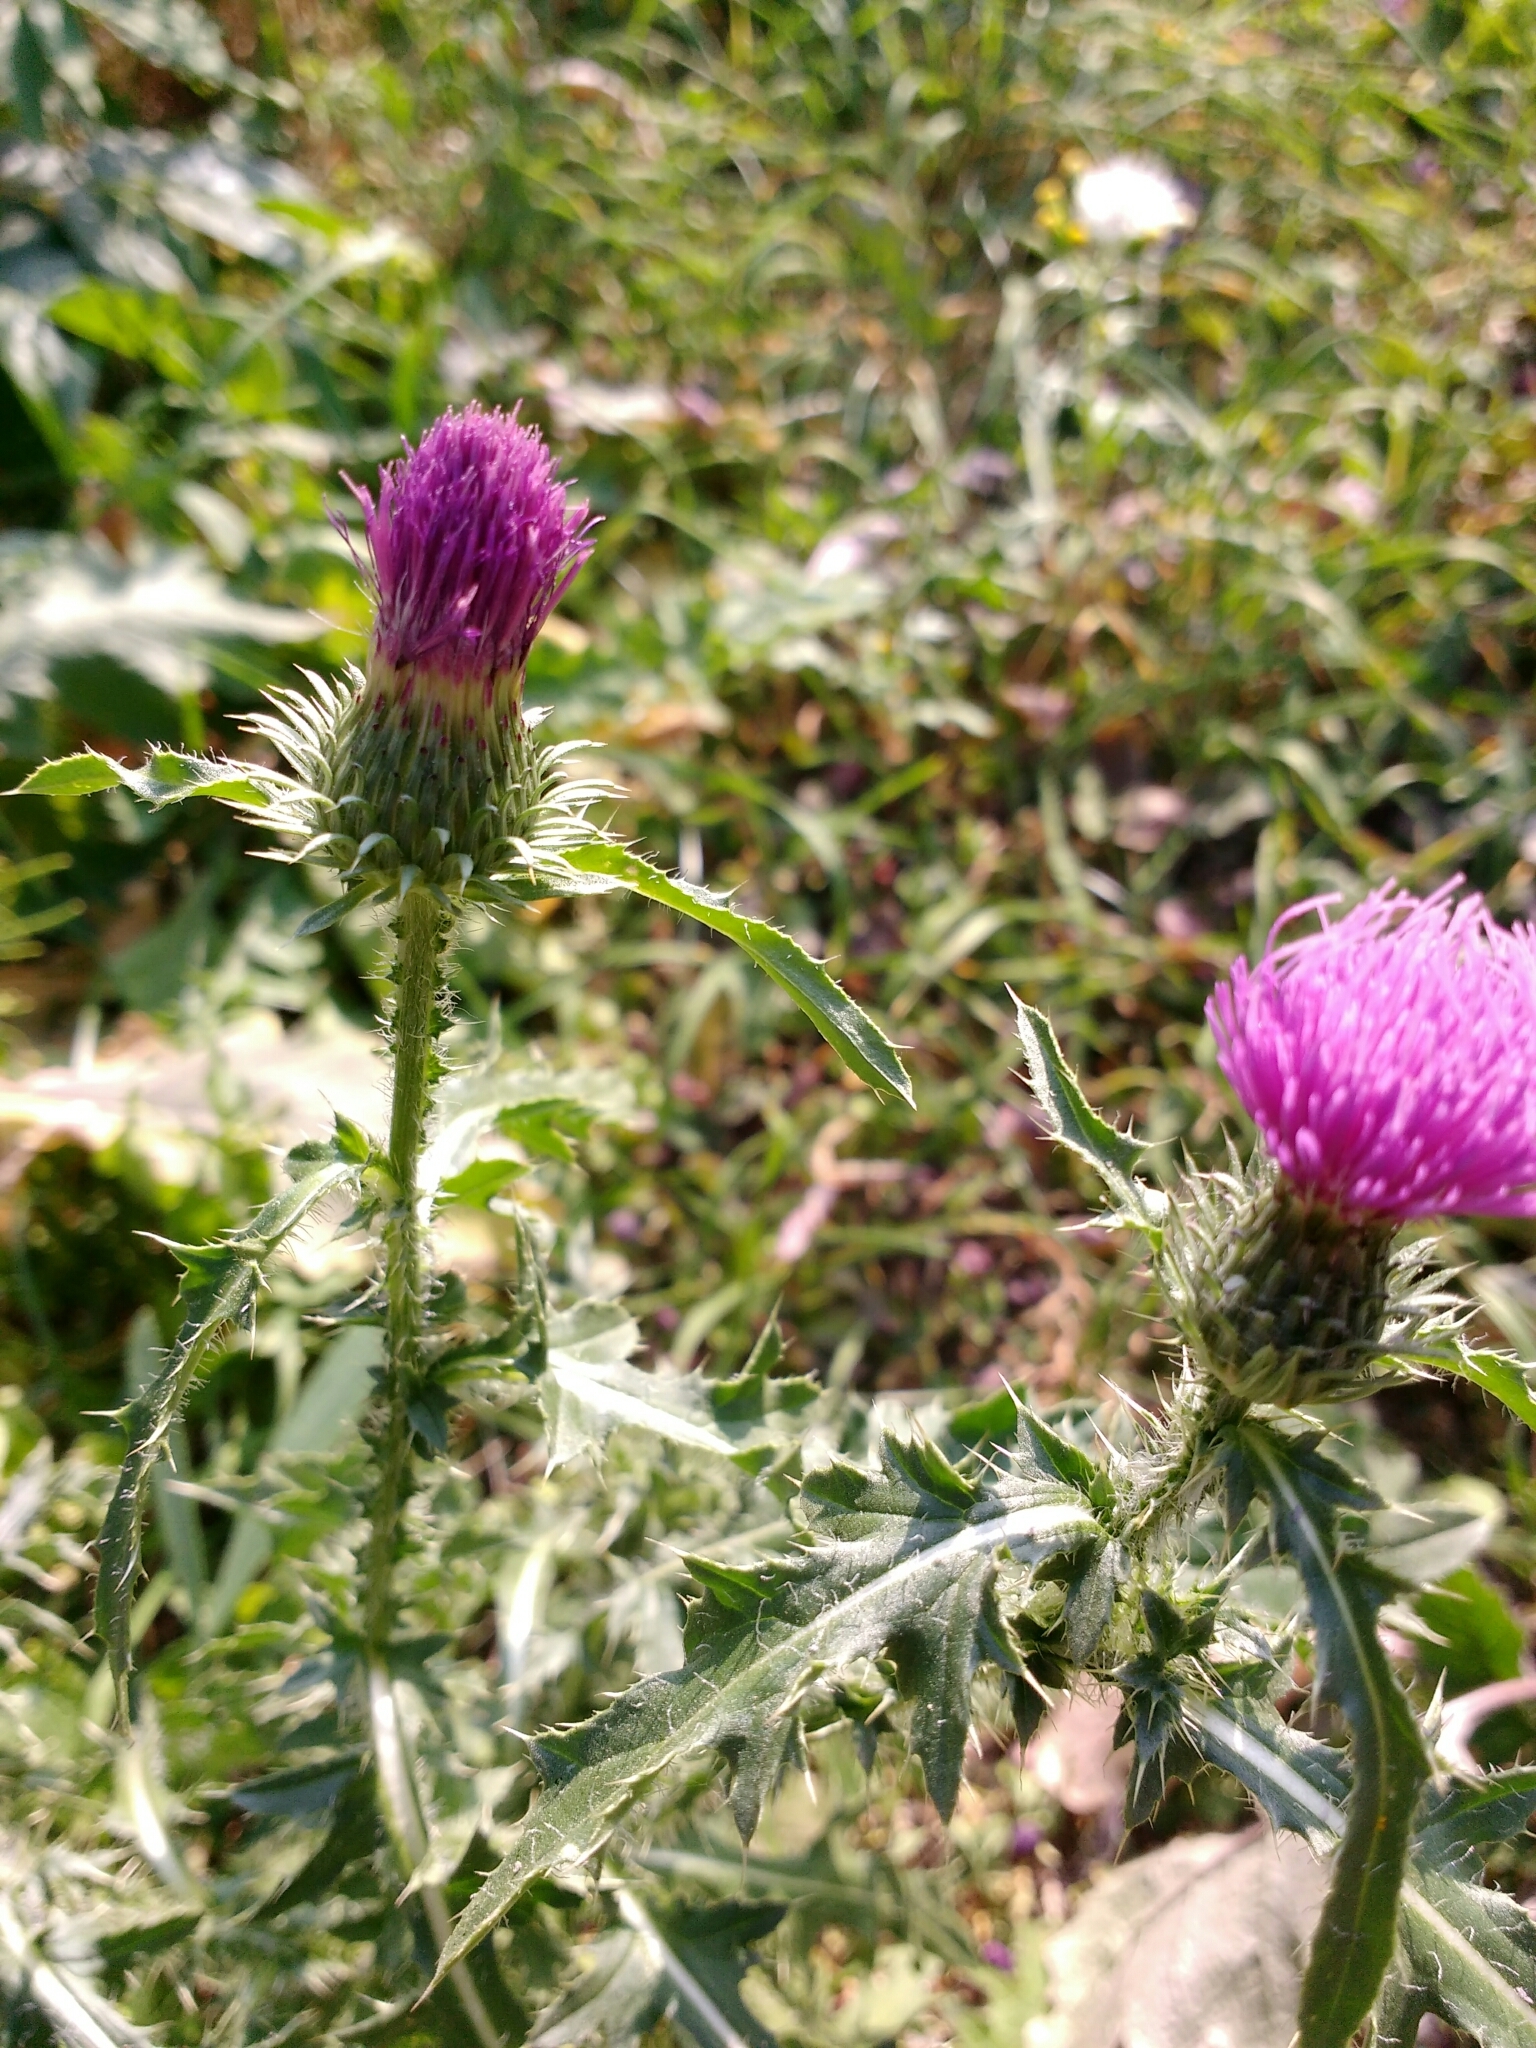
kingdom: Plantae
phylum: Tracheophyta
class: Magnoliopsida
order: Asterales
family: Asteraceae
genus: Carduus
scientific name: Carduus acanthoides
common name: Plumeless thistle
